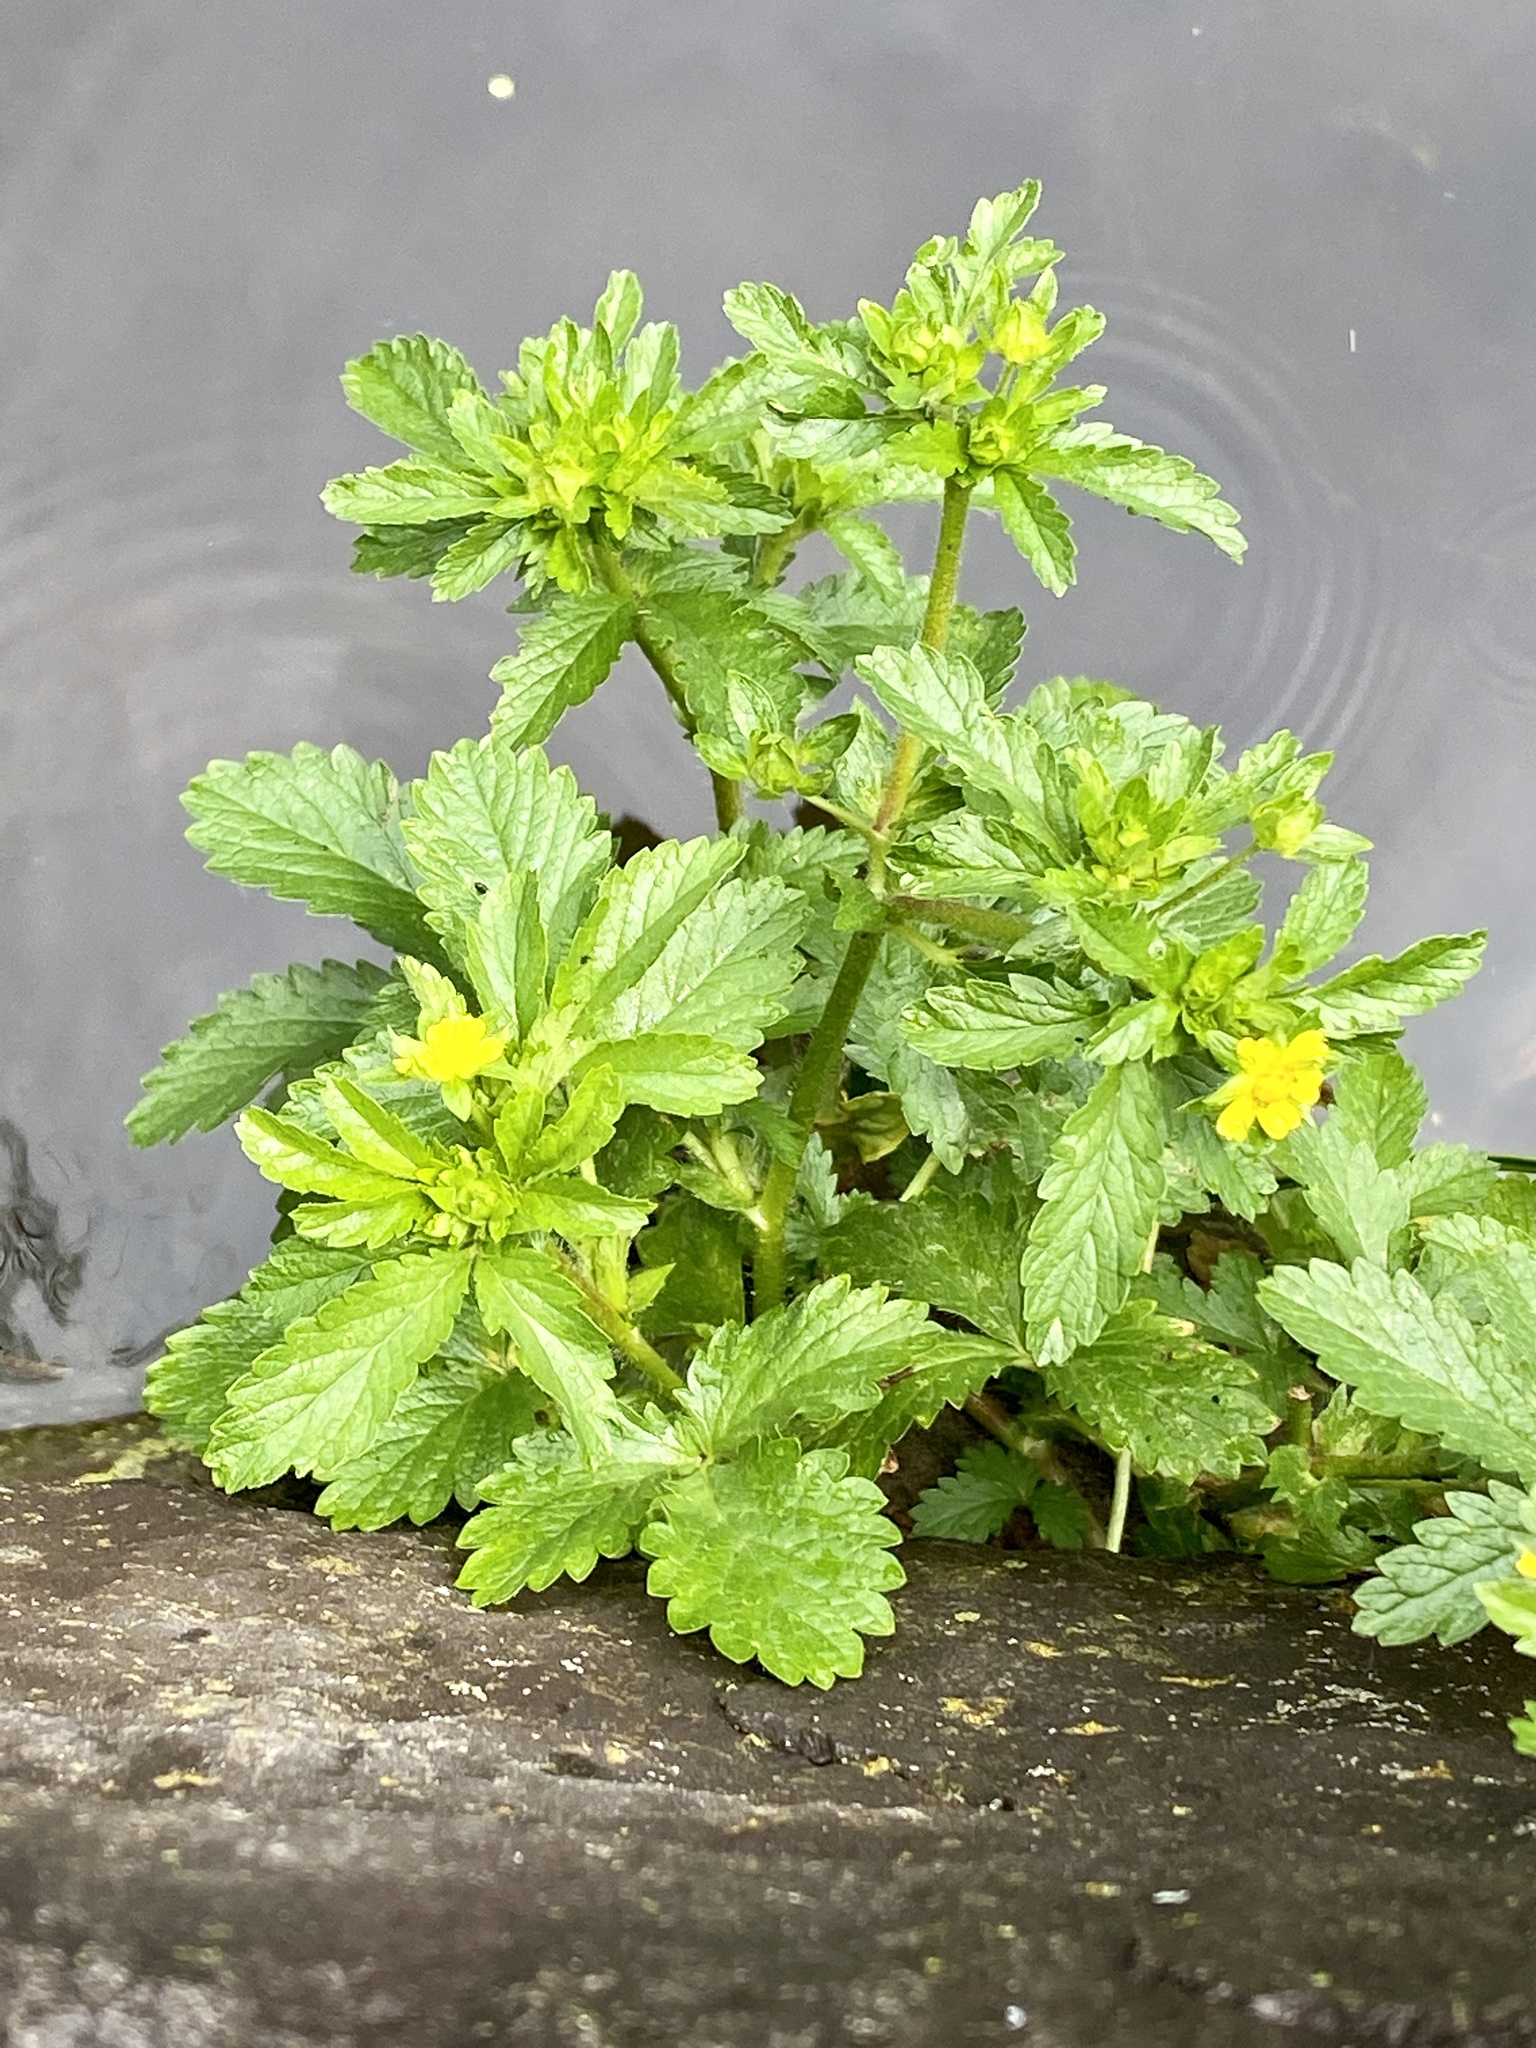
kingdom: Plantae
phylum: Tracheophyta
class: Magnoliopsida
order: Rosales
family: Rosaceae
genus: Potentilla
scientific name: Potentilla norvegica
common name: Ternate-leaved cinquefoil
